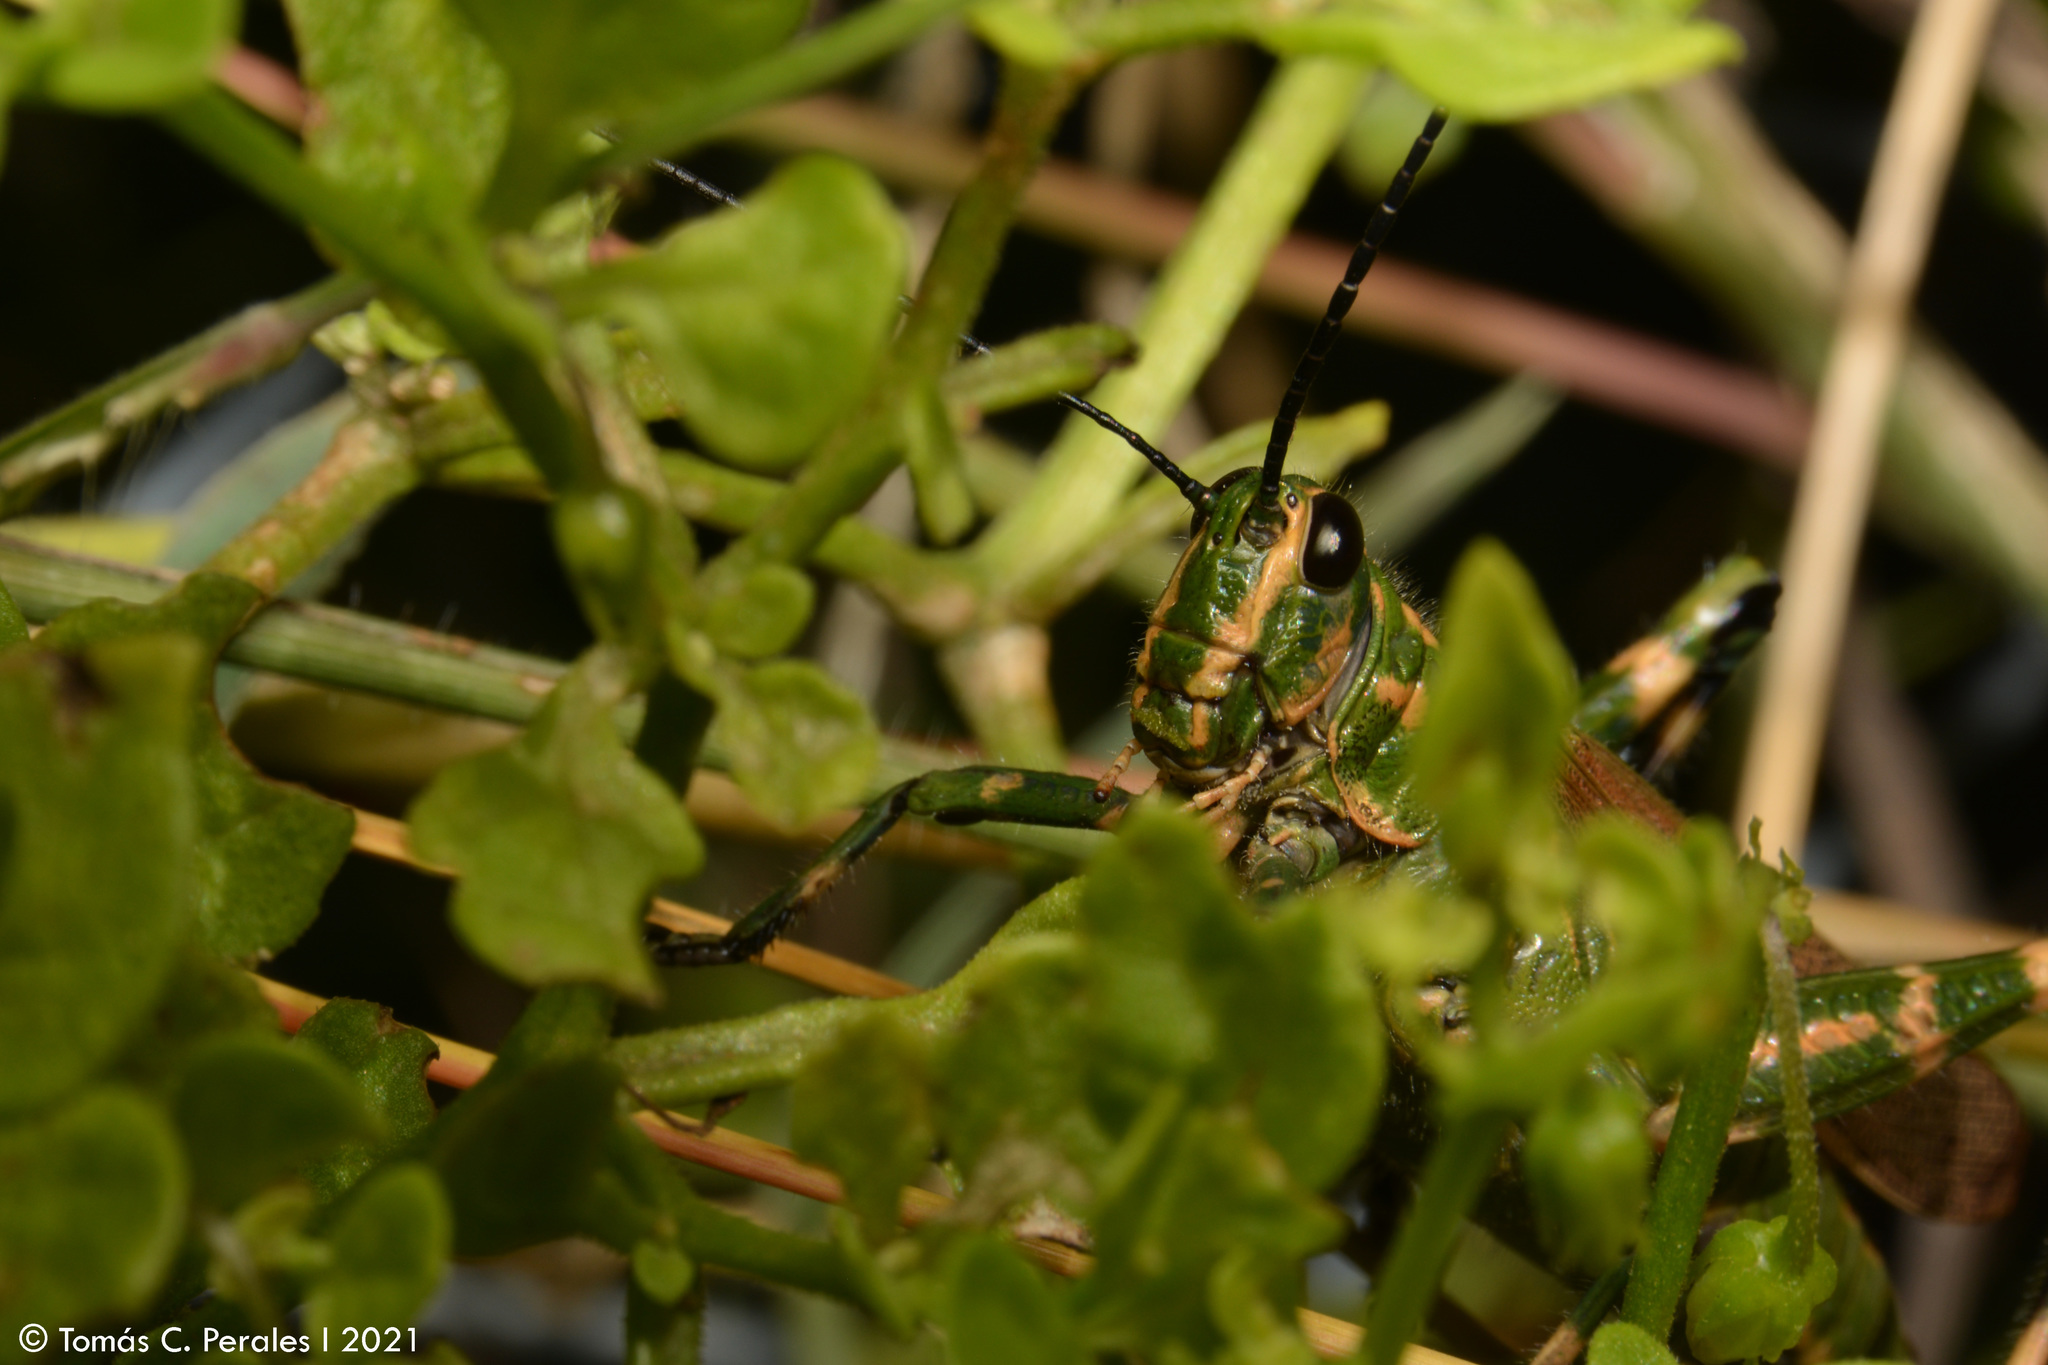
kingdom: Animalia
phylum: Arthropoda
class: Insecta
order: Orthoptera
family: Romaleidae
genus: Chromacris
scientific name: Chromacris speciosa
